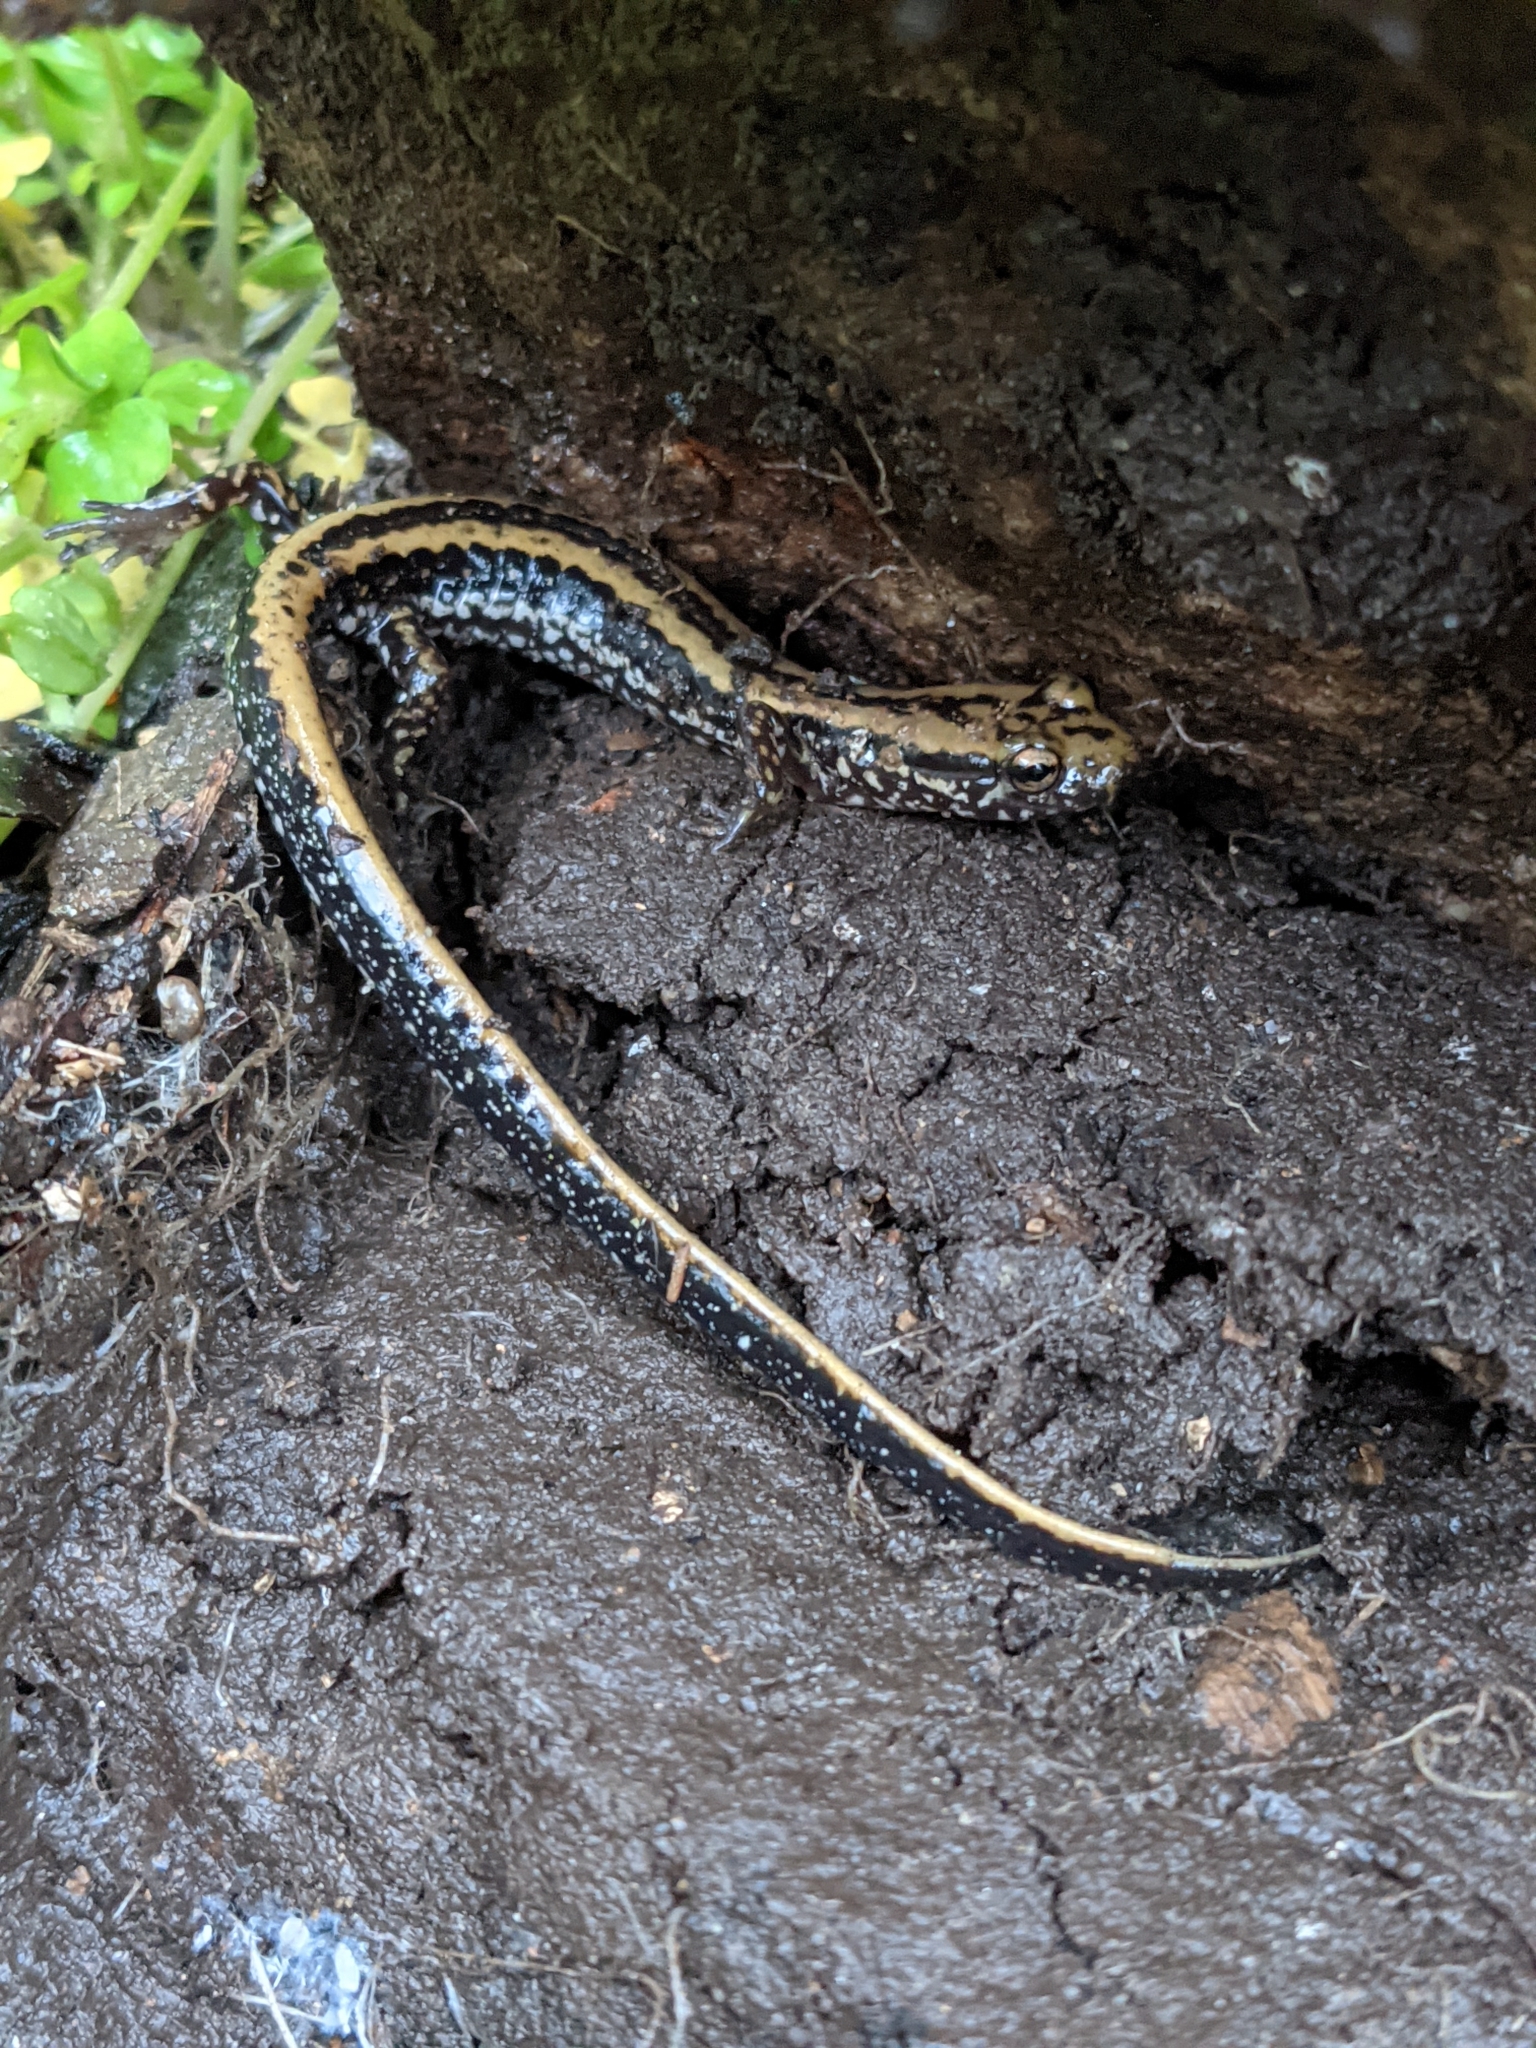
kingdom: Animalia
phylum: Chordata
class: Amphibia
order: Caudata
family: Plethodontidae
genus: Eurycea
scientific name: Eurycea guttolineata
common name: Three-lined salamander
